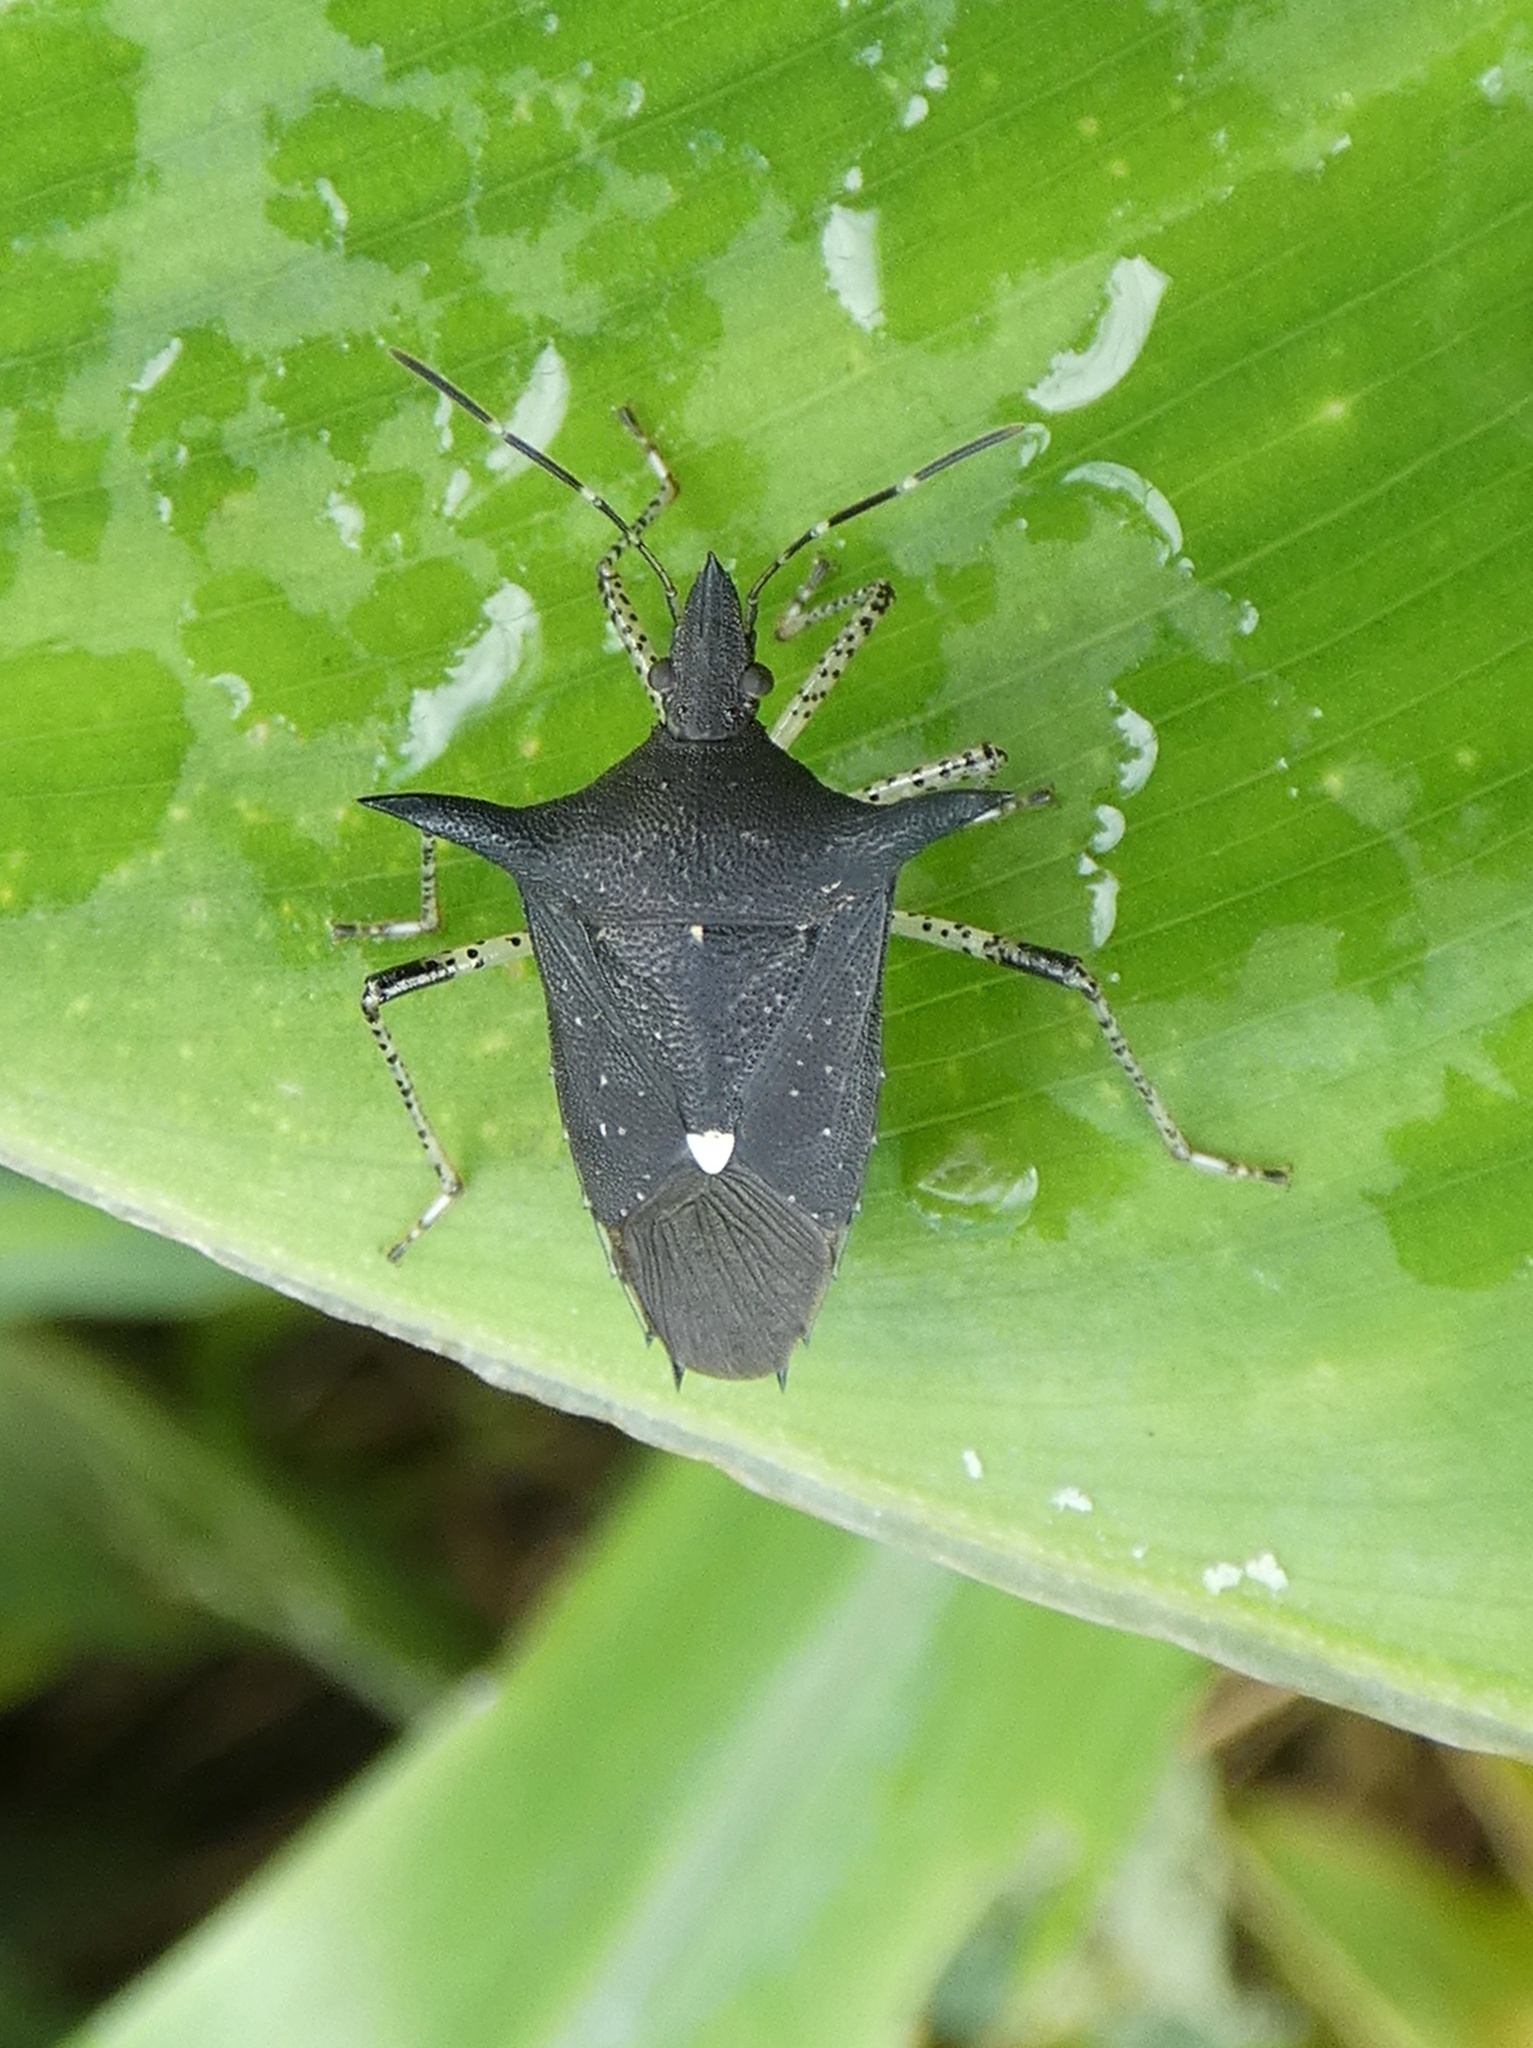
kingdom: Animalia
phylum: Arthropoda
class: Insecta
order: Hemiptera
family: Pentatomidae
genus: Proxys
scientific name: Proxys victor
